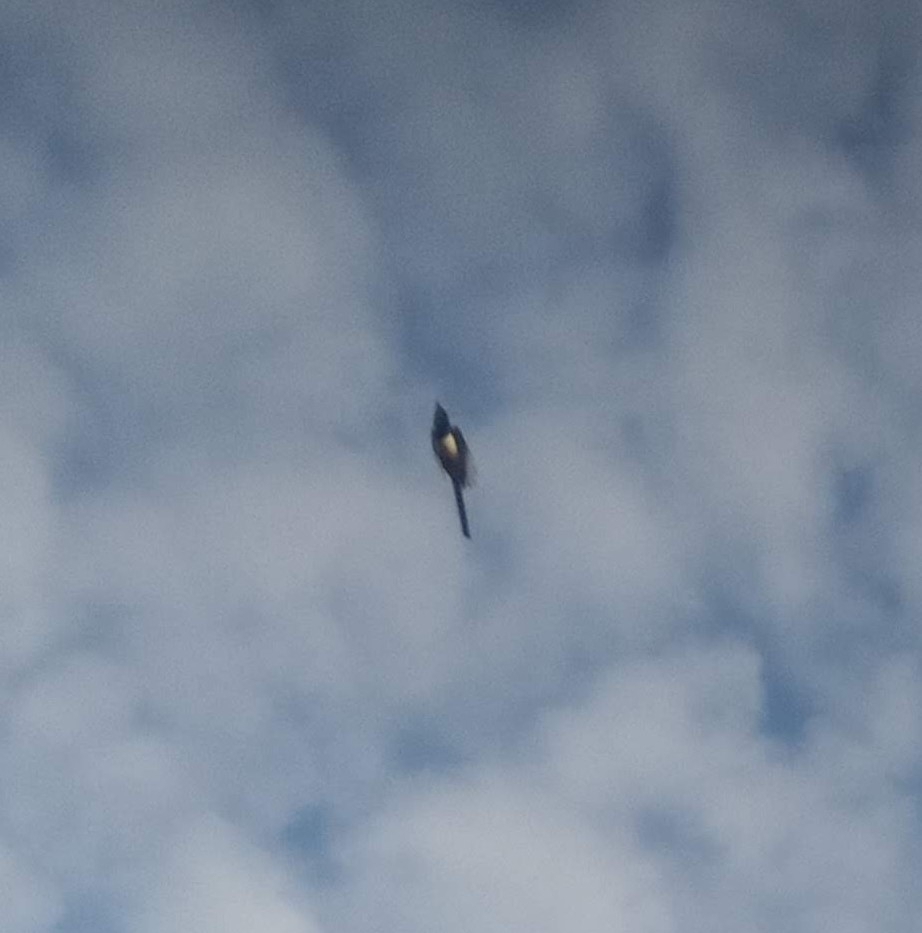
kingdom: Animalia
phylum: Chordata
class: Aves
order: Passeriformes
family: Corvidae
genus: Pica
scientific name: Pica pica
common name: Eurasian magpie
